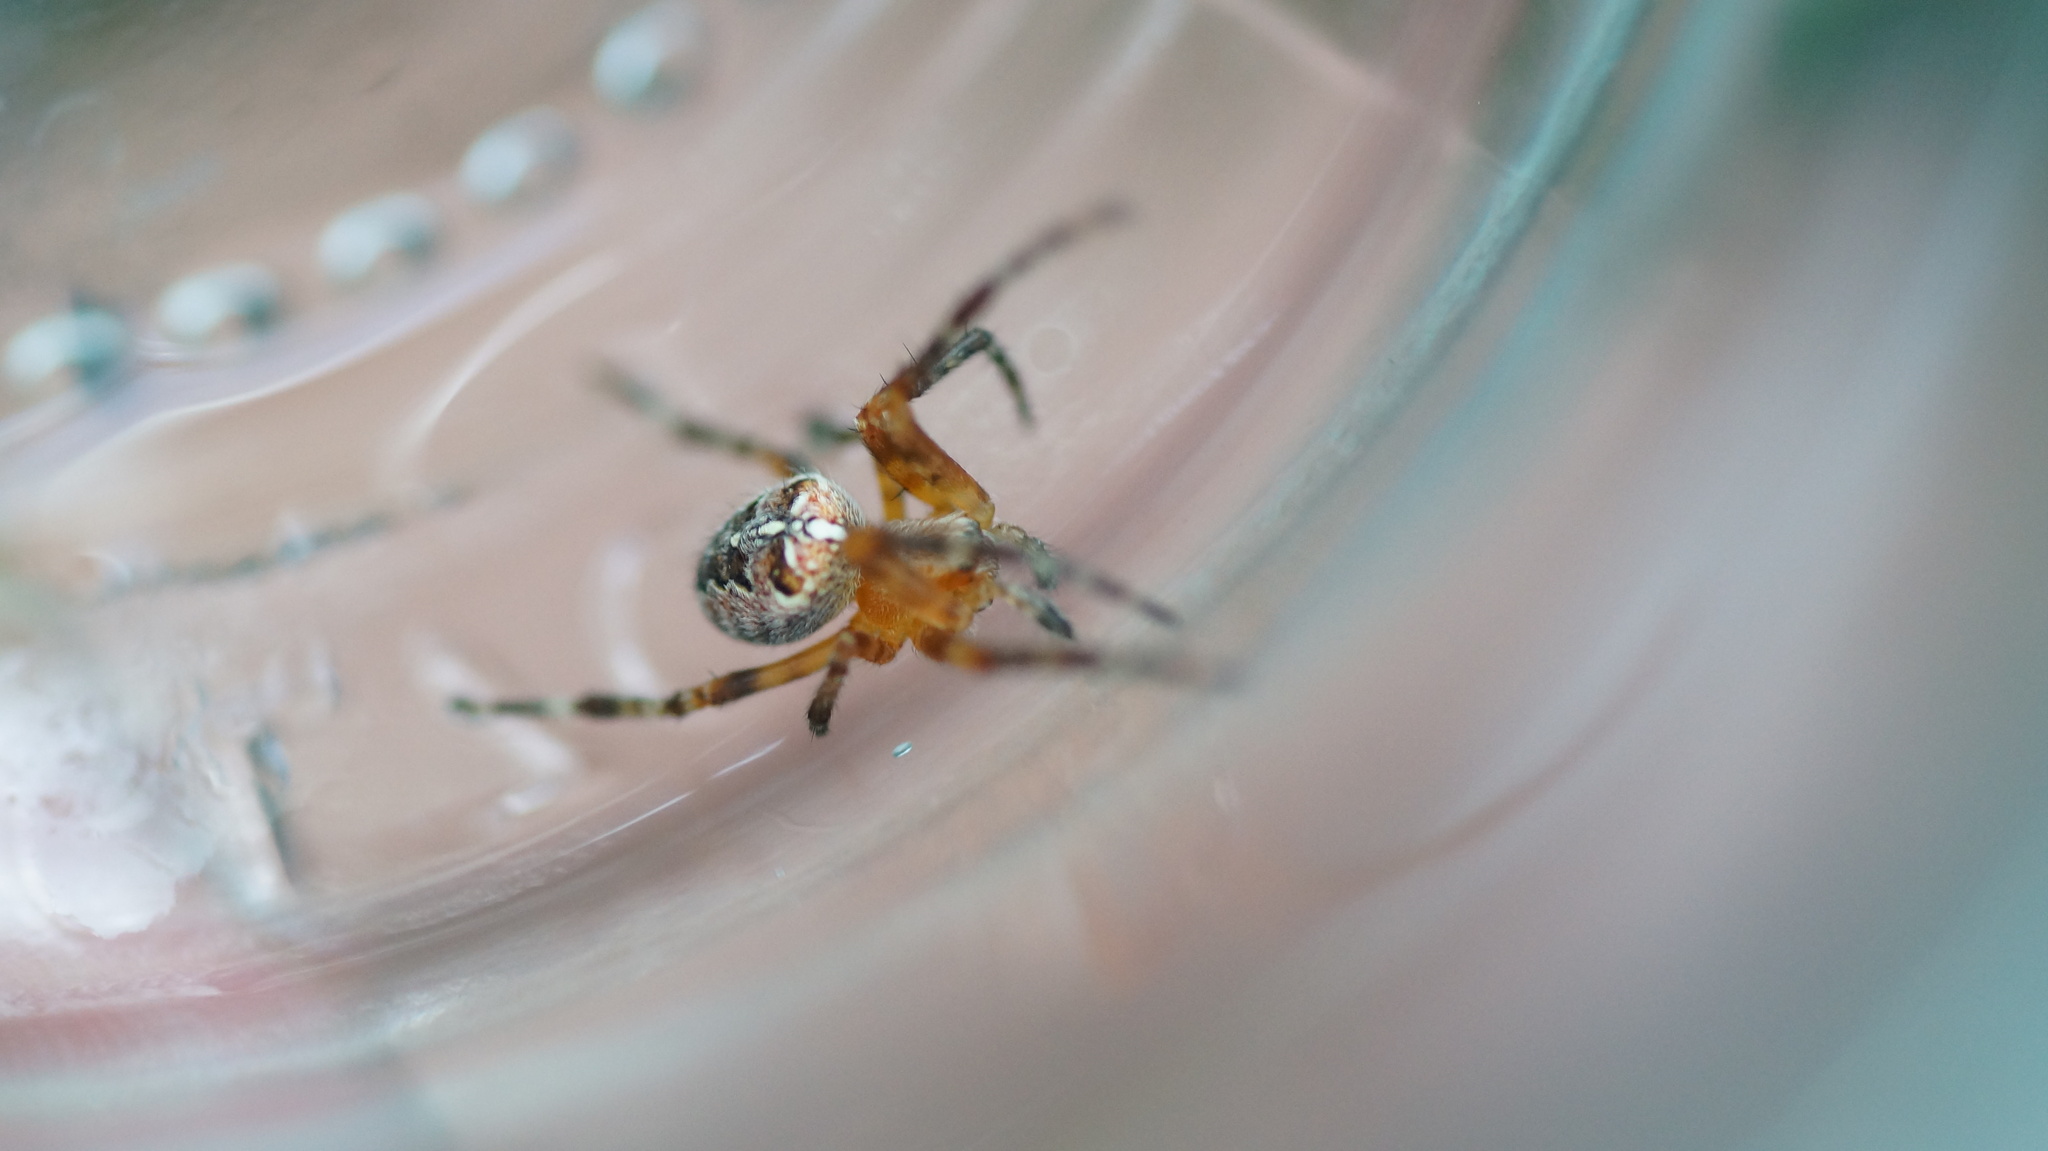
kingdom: Animalia
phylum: Arthropoda
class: Arachnida
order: Araneae
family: Araneidae
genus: Araneus
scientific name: Araneus diadematus
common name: Cross orbweaver
